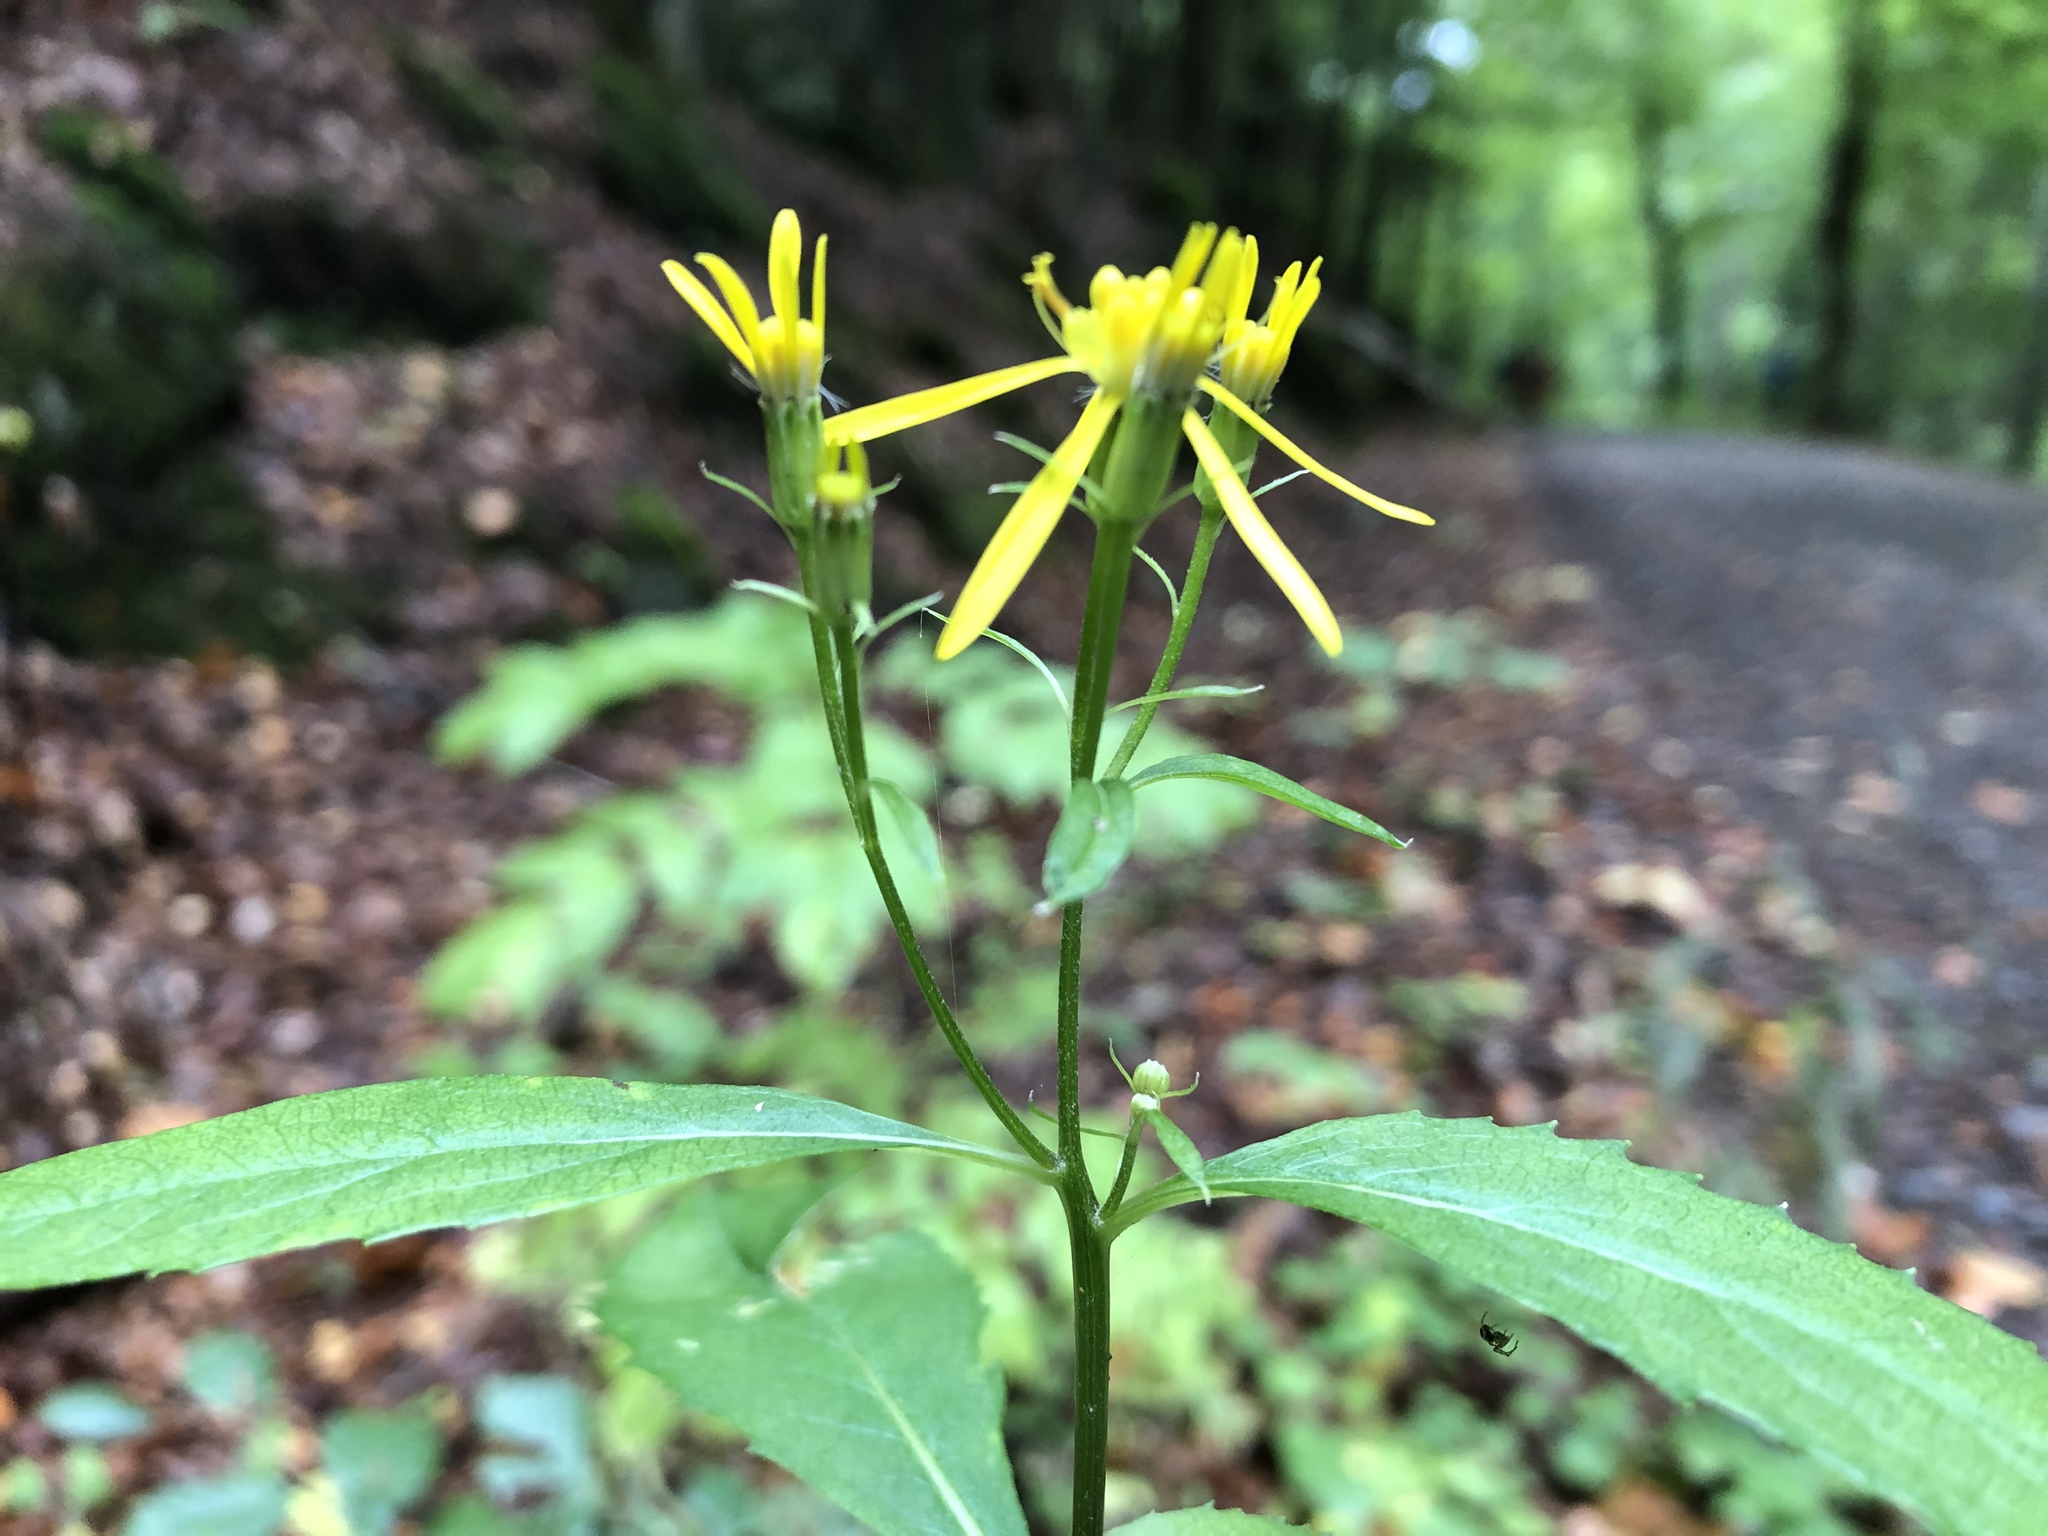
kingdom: Plantae
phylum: Tracheophyta
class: Magnoliopsida
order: Asterales
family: Asteraceae
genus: Senecio
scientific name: Senecio ovatus
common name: Wood ragwort
